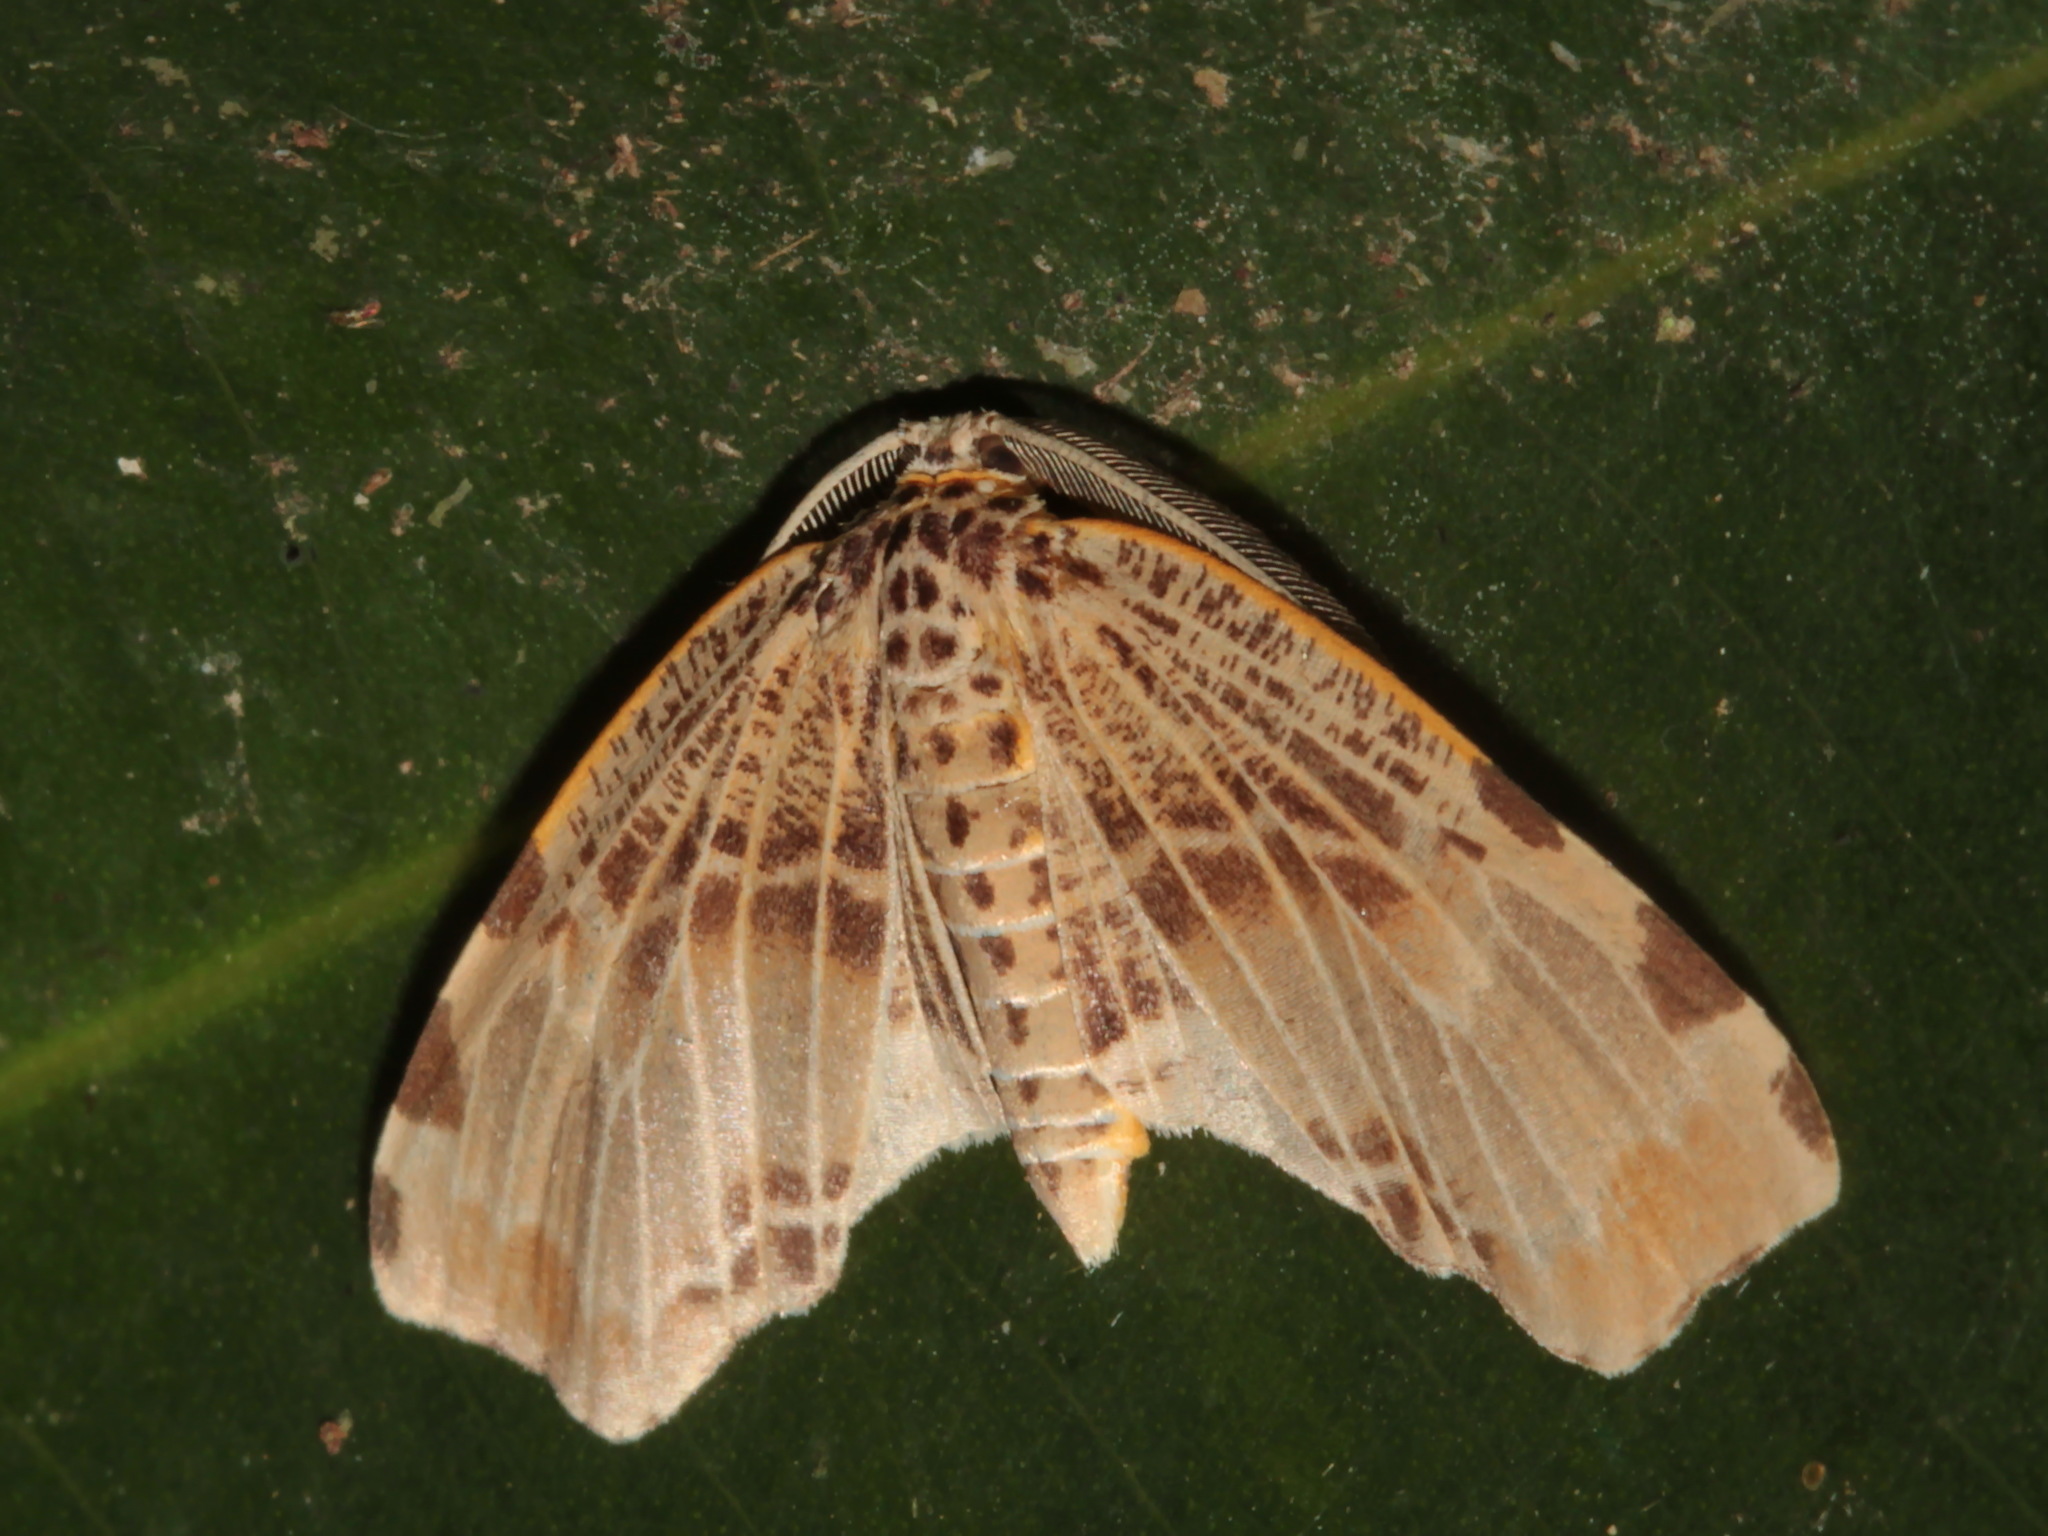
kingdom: Animalia
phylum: Arthropoda
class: Insecta
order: Lepidoptera
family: Geometridae
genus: Achrosis
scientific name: Achrosis pyrrhularia
